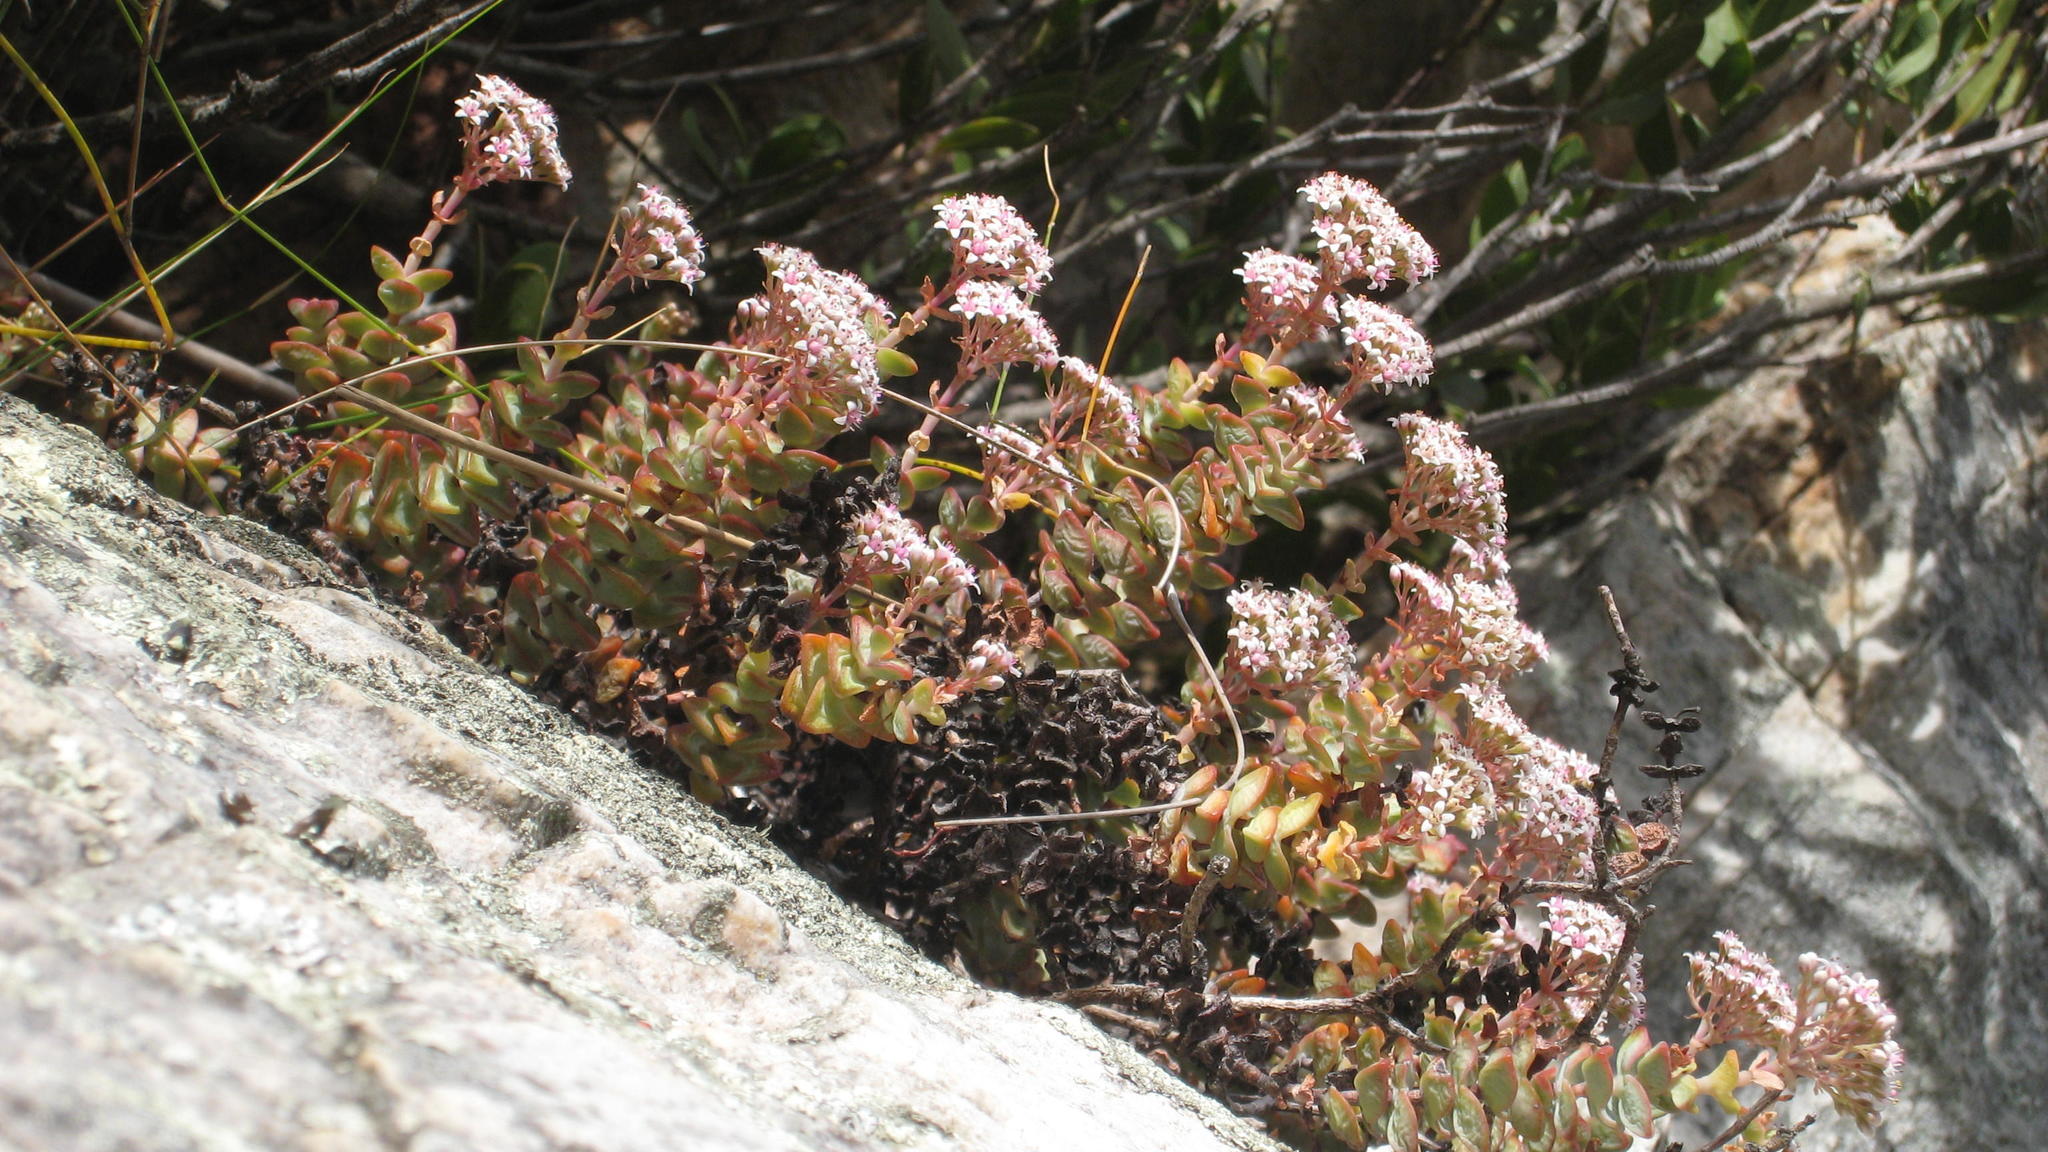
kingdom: Plantae
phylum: Tracheophyta
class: Magnoliopsida
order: Saxifragales
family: Crassulaceae
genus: Crassula
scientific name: Crassula rupestris
